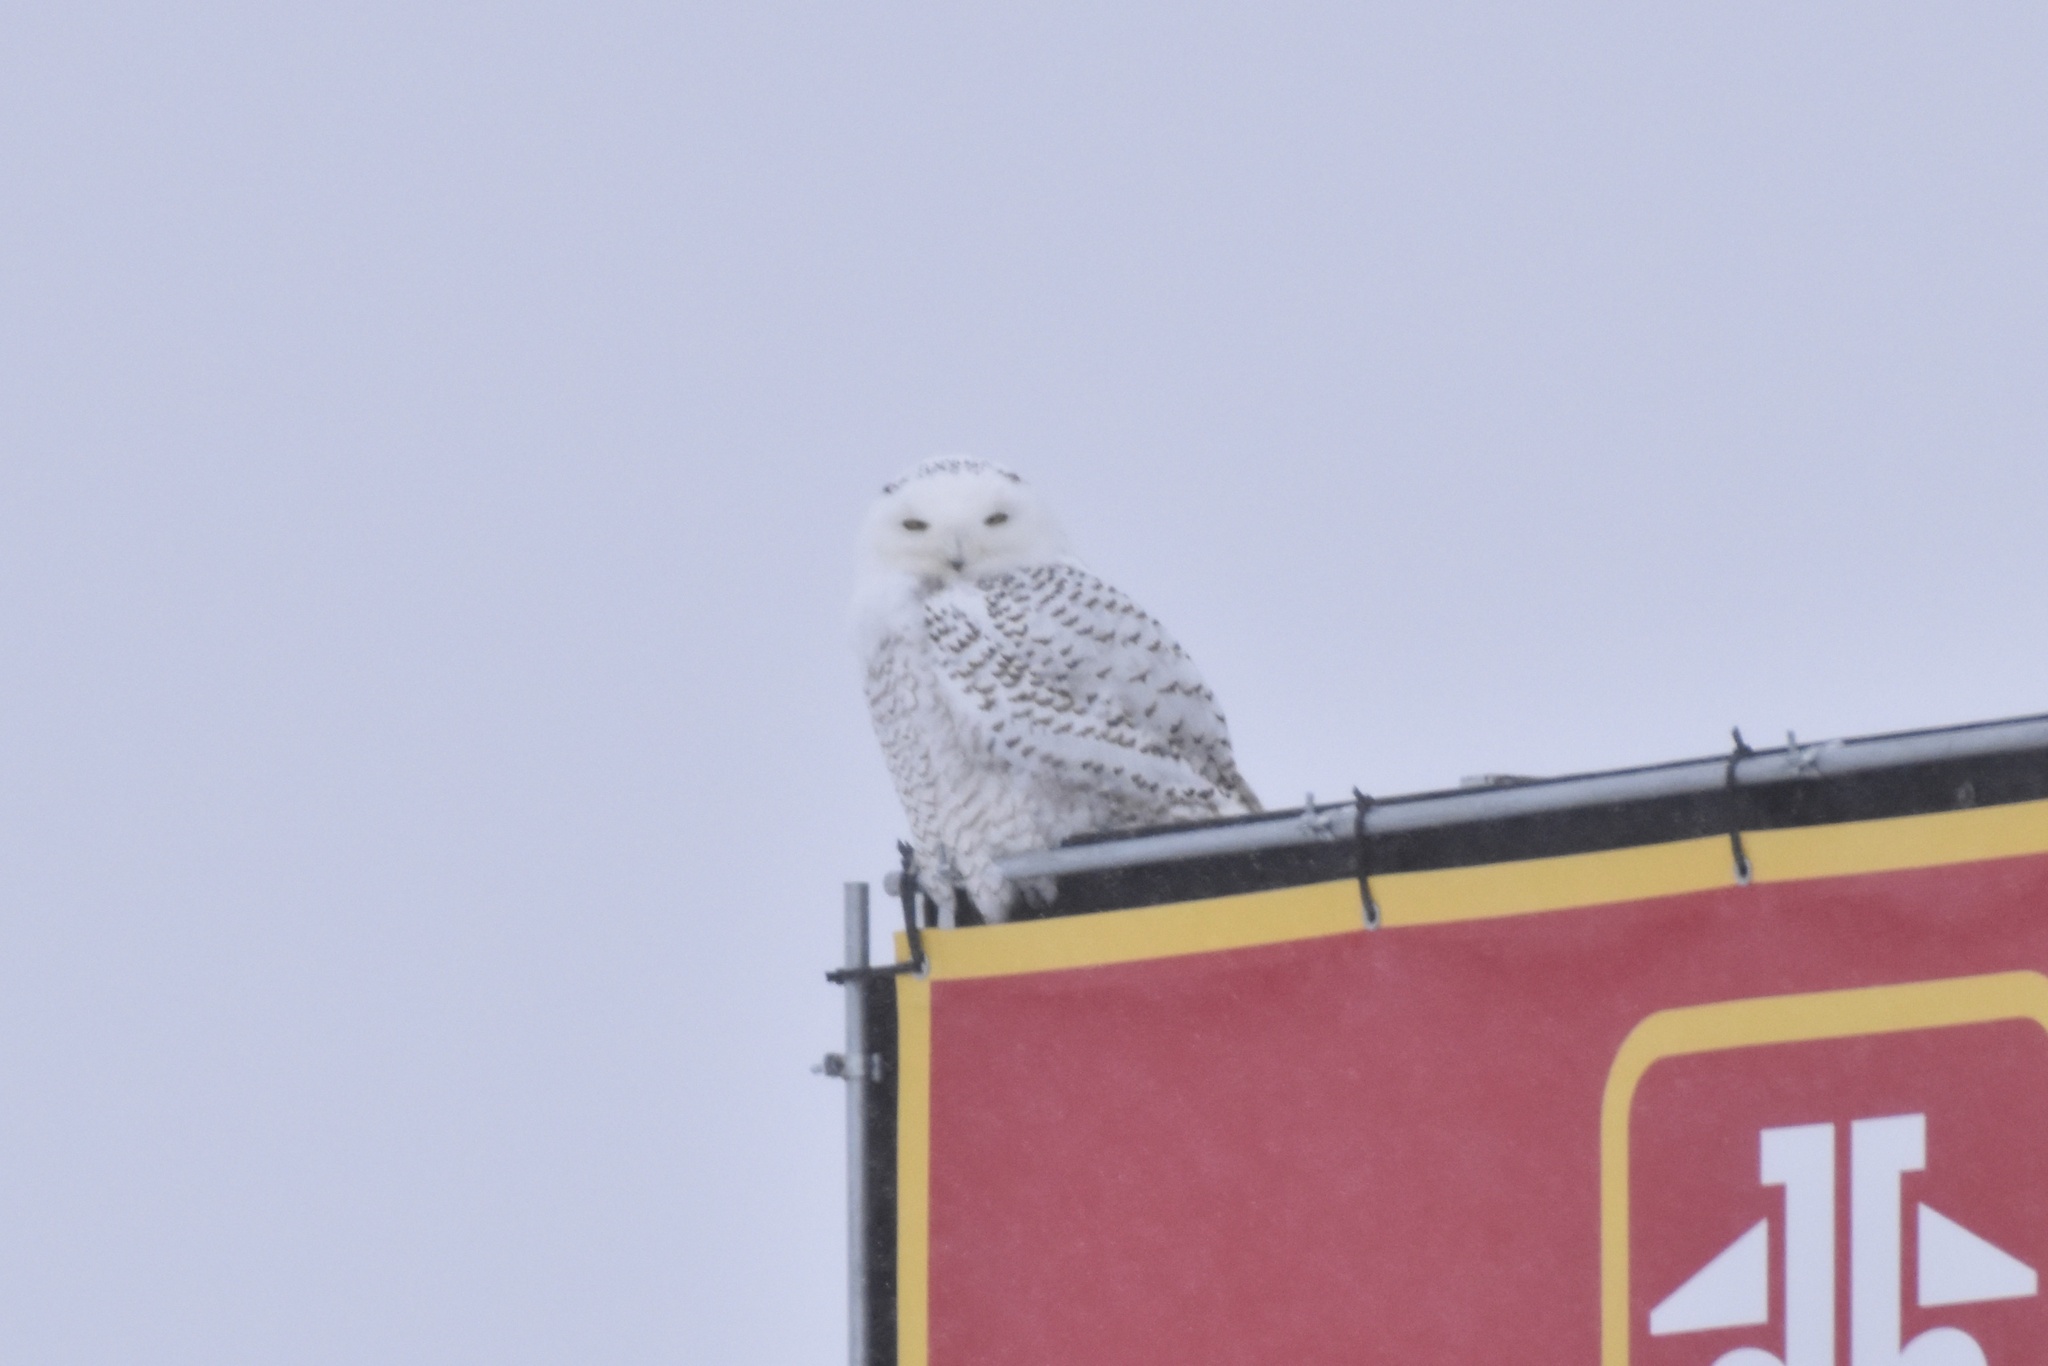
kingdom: Animalia
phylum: Chordata
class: Aves
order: Strigiformes
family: Strigidae
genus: Bubo
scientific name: Bubo scandiacus
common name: Snowy owl
